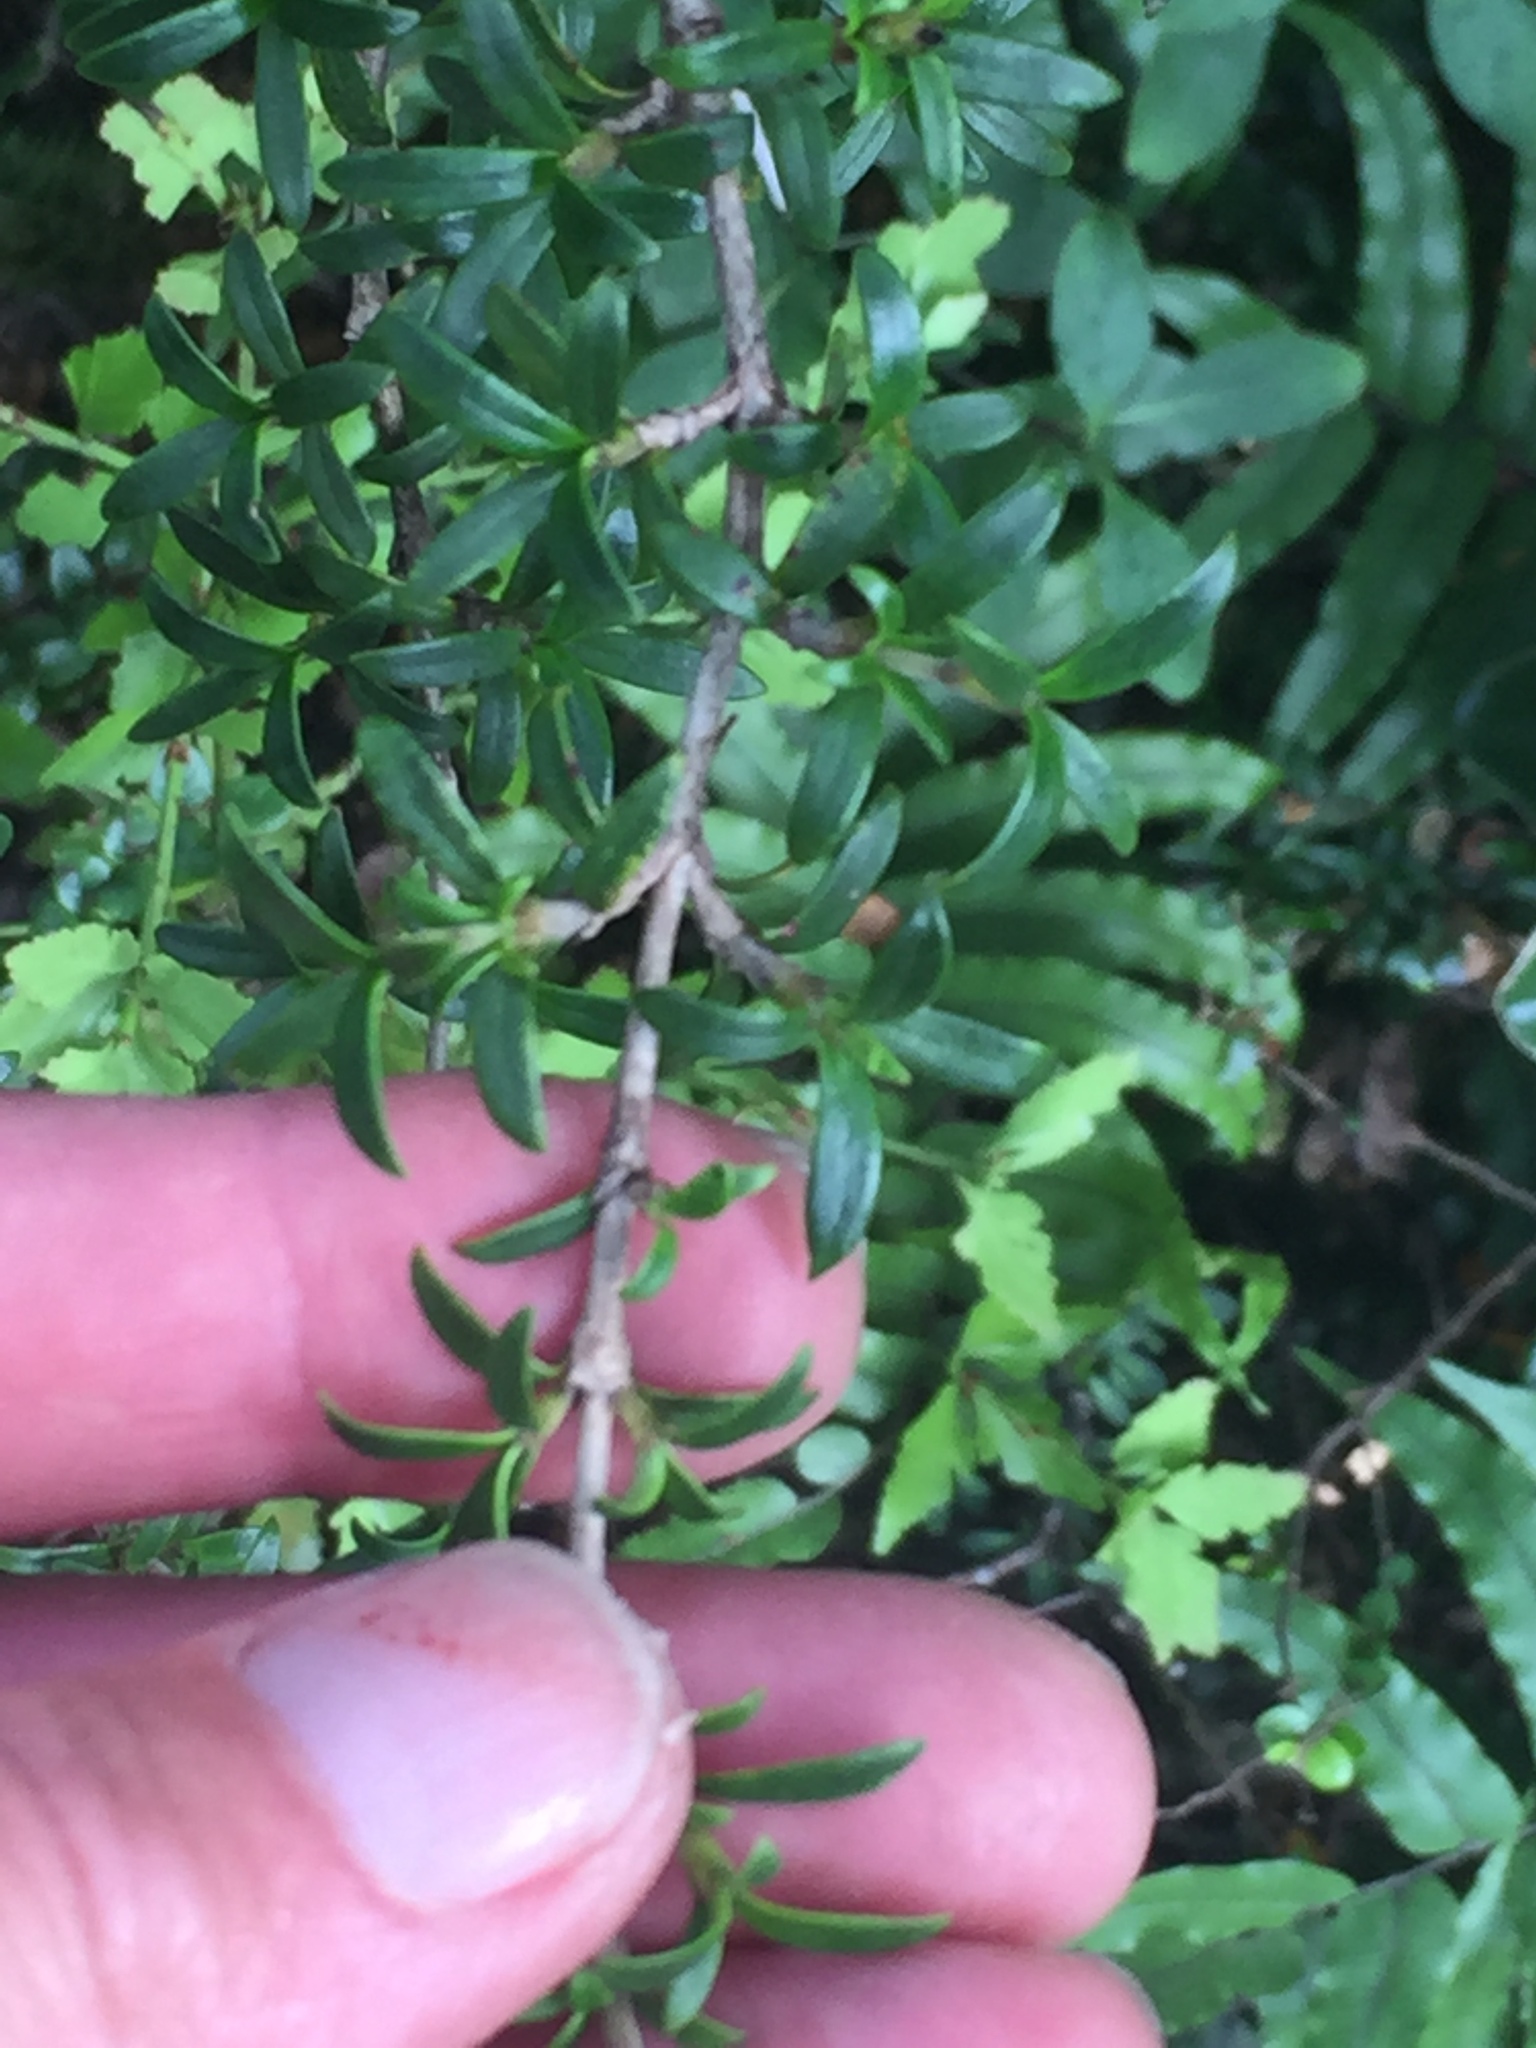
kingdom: Plantae
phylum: Tracheophyta
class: Magnoliopsida
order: Gentianales
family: Rubiaceae
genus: Coprosma
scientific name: Coprosma pseudocuneata
